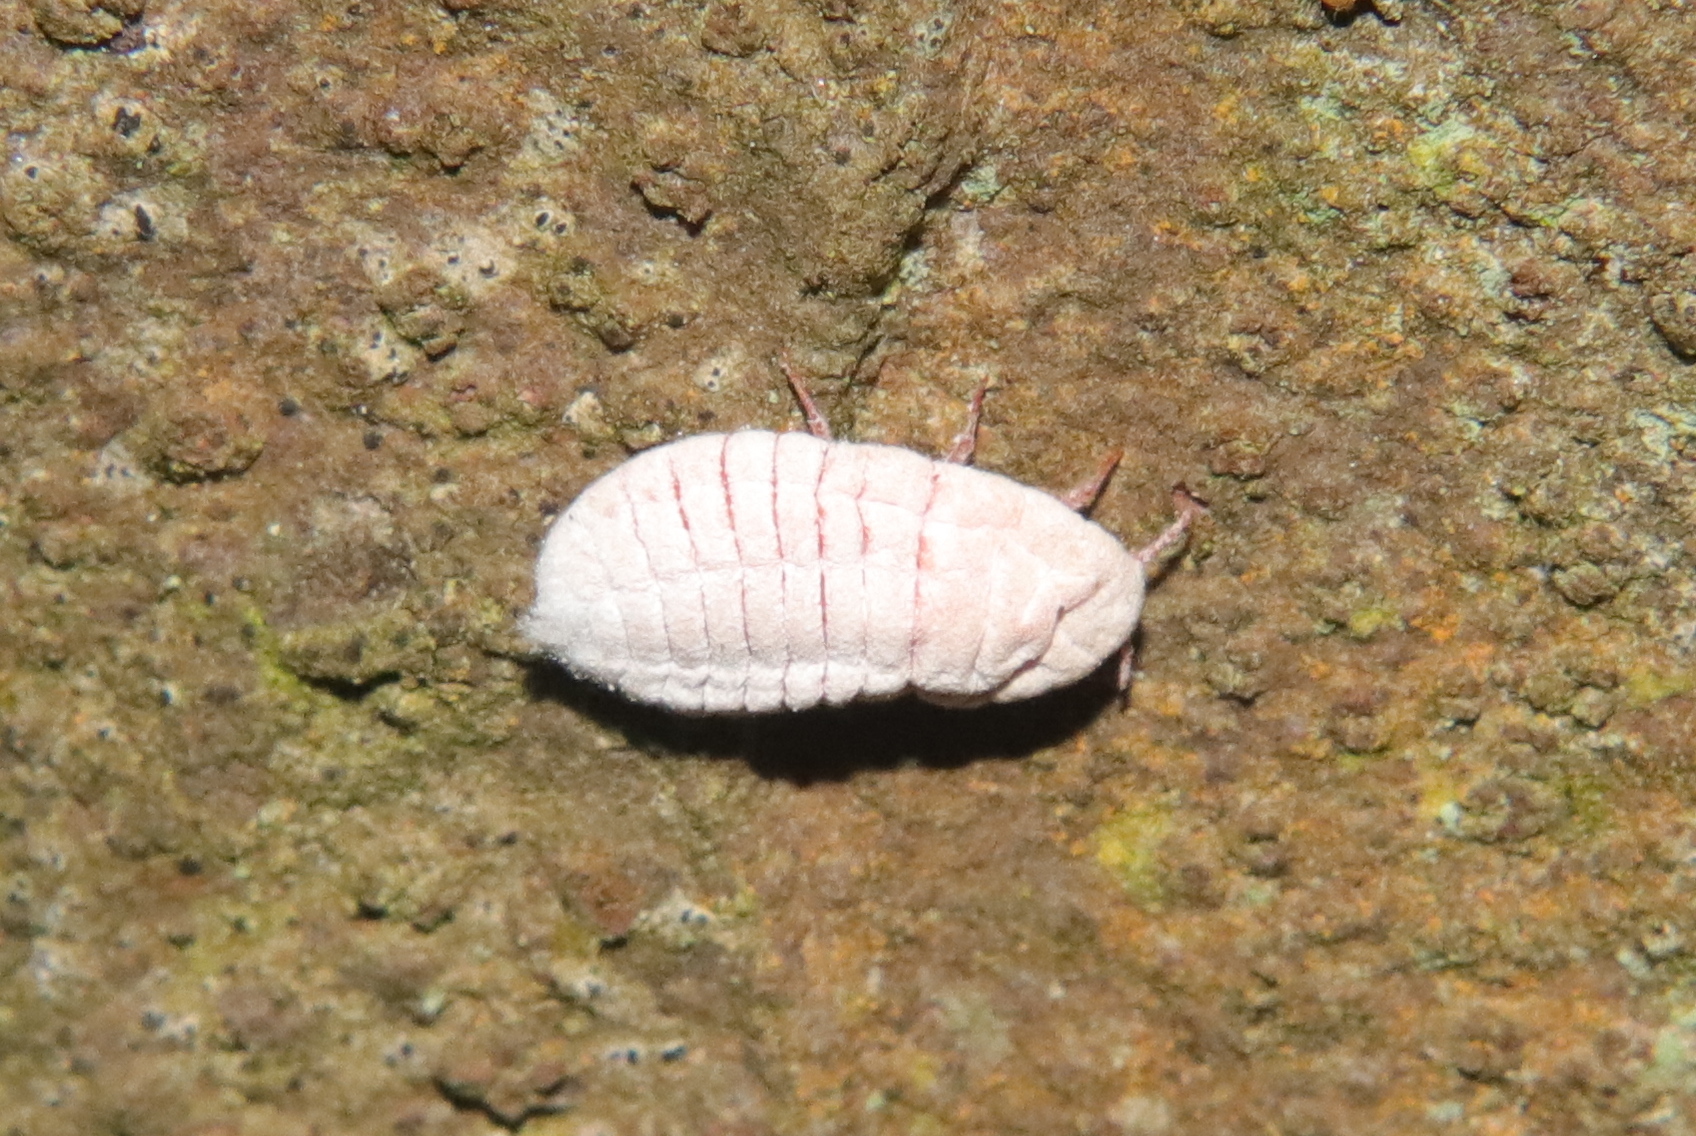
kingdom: Animalia
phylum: Arthropoda
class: Insecta
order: Hemiptera
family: Margarodidae
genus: Coelostomidia
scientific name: Coelostomidia zealandica
